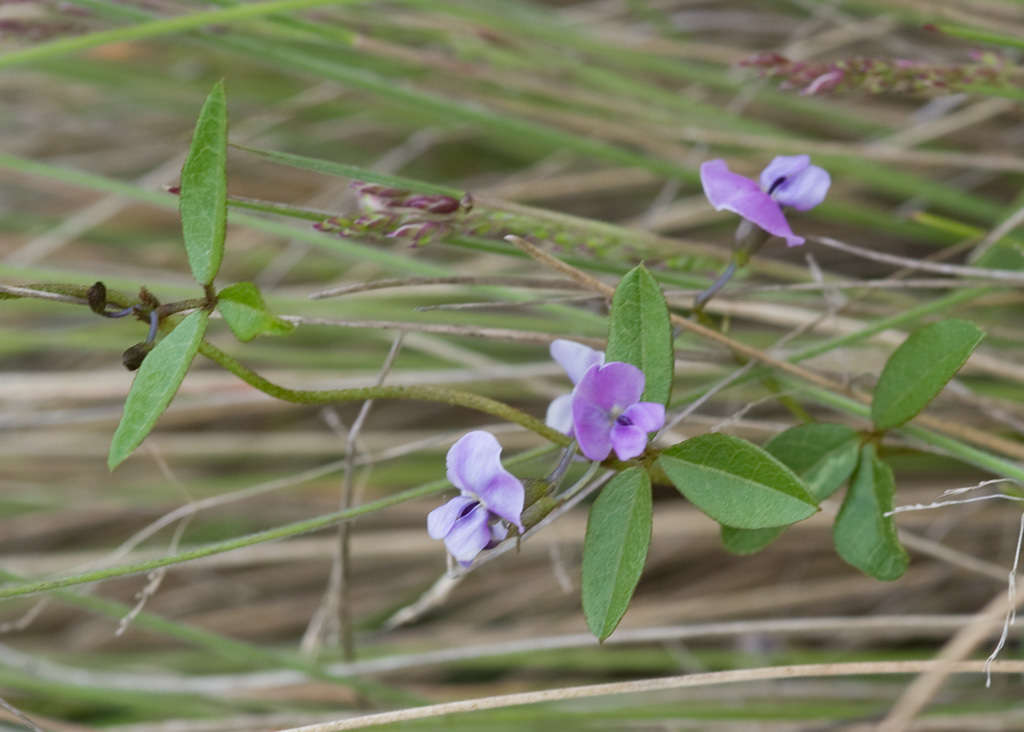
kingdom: Plantae
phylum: Tracheophyta
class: Magnoliopsida
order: Fabales
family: Fabaceae
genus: Glycine
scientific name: Glycine clandestina
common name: Twining glycine
